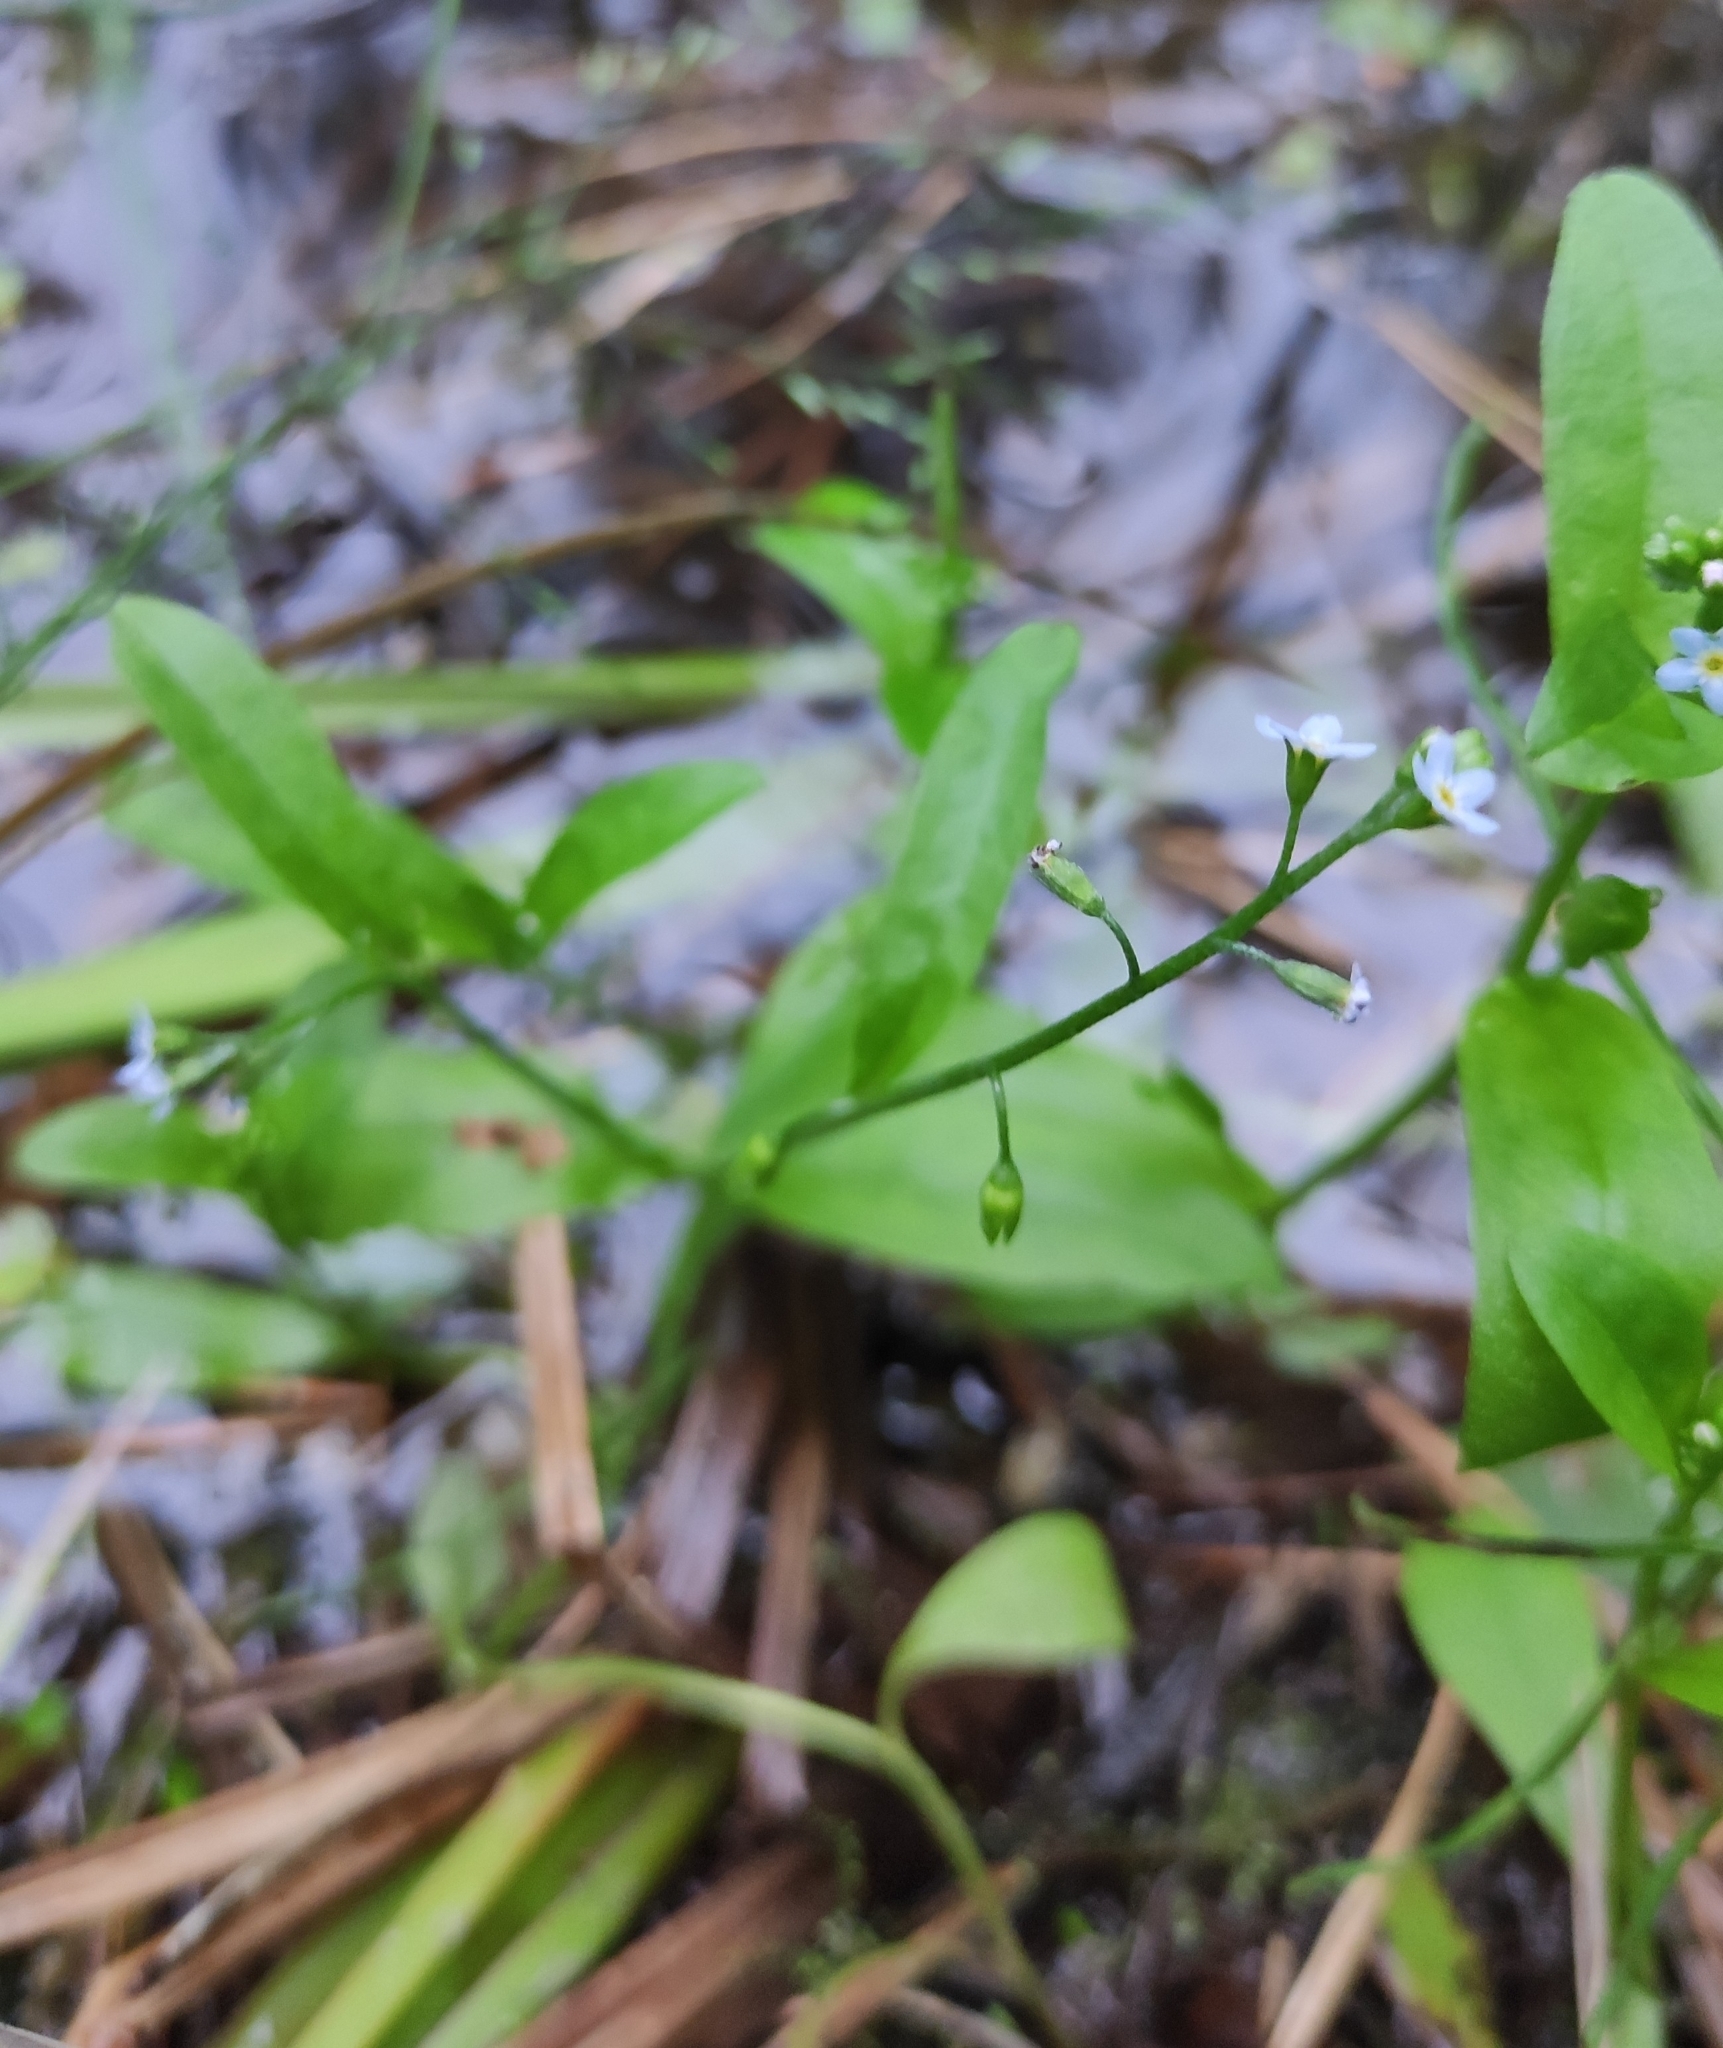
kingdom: Plantae
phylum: Tracheophyta
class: Magnoliopsida
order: Boraginales
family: Boraginaceae
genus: Myosotis
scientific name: Myosotis laxa
